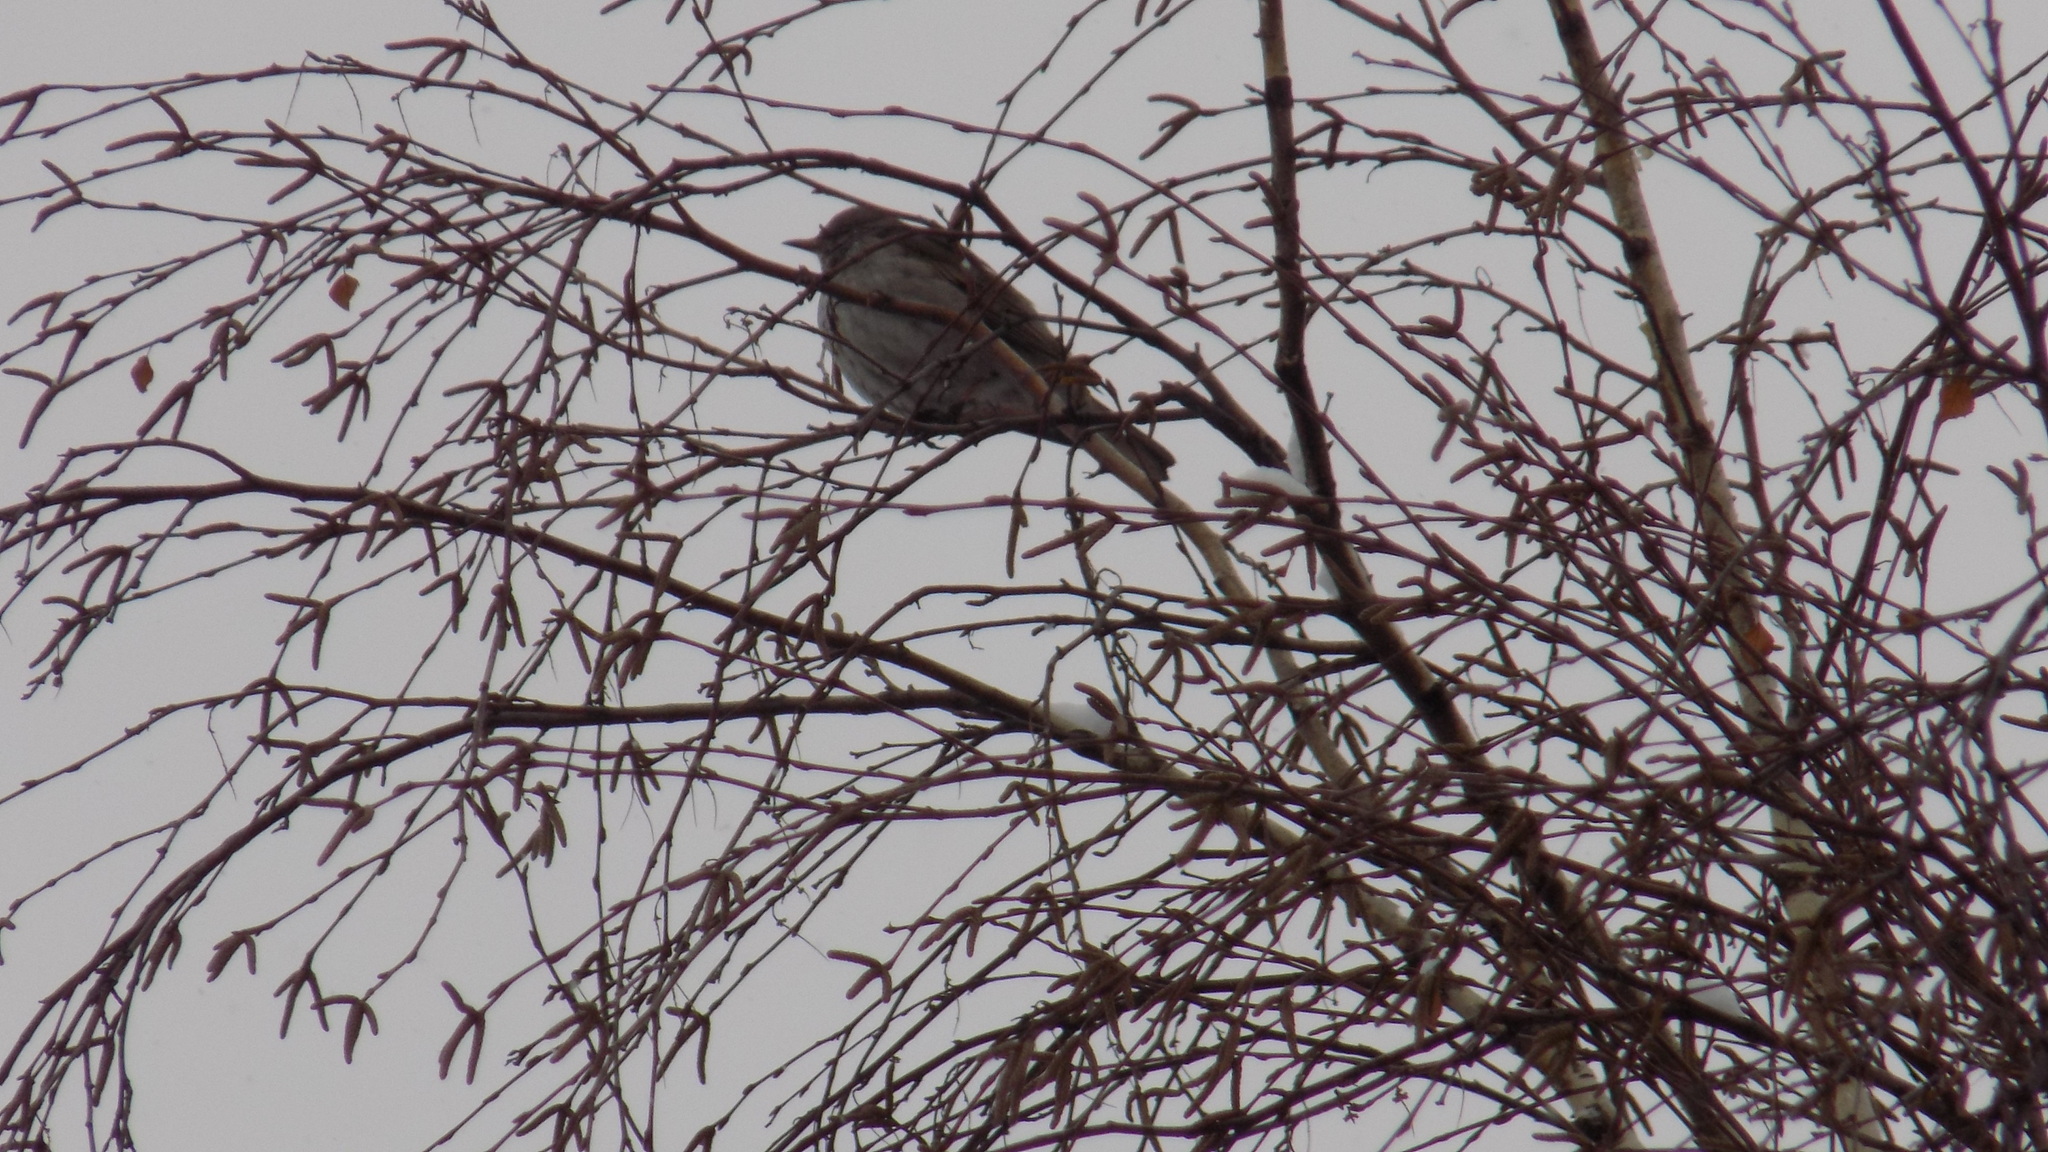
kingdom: Animalia
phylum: Chordata
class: Aves
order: Passeriformes
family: Turdidae
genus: Turdus
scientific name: Turdus atrogularis
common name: Black-throated thrush
